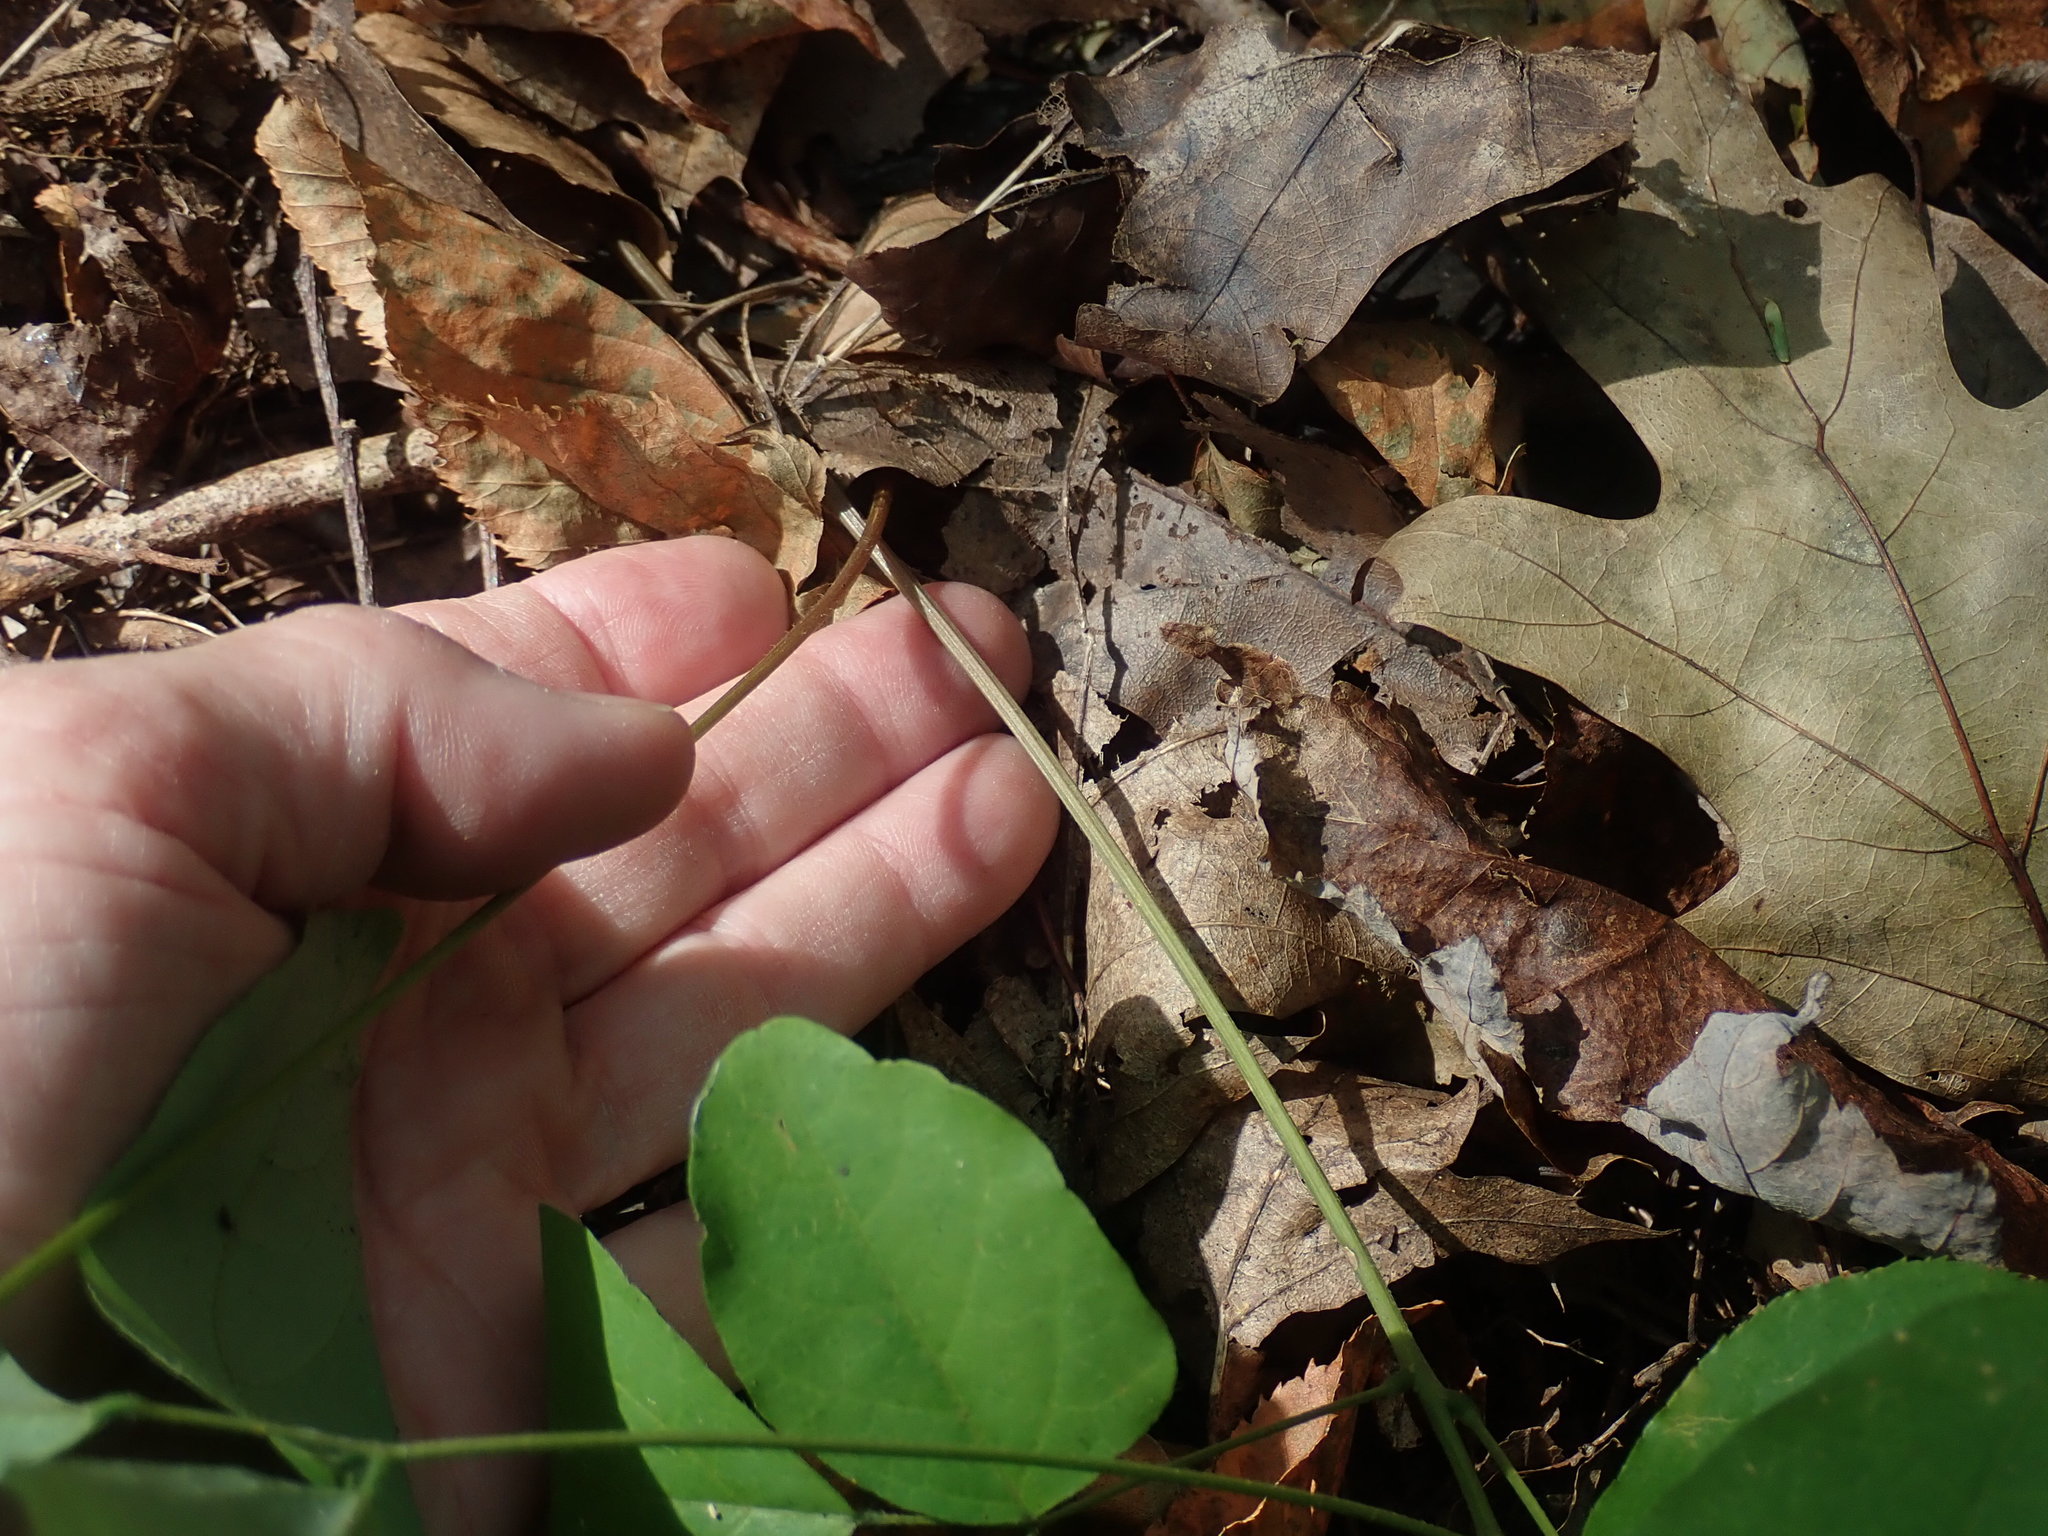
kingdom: Plantae
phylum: Tracheophyta
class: Magnoliopsida
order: Fabales
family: Fabaceae
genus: Hylodesmum
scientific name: Hylodesmum nudiflorum
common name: Bare-stemmed tick-trefoil
